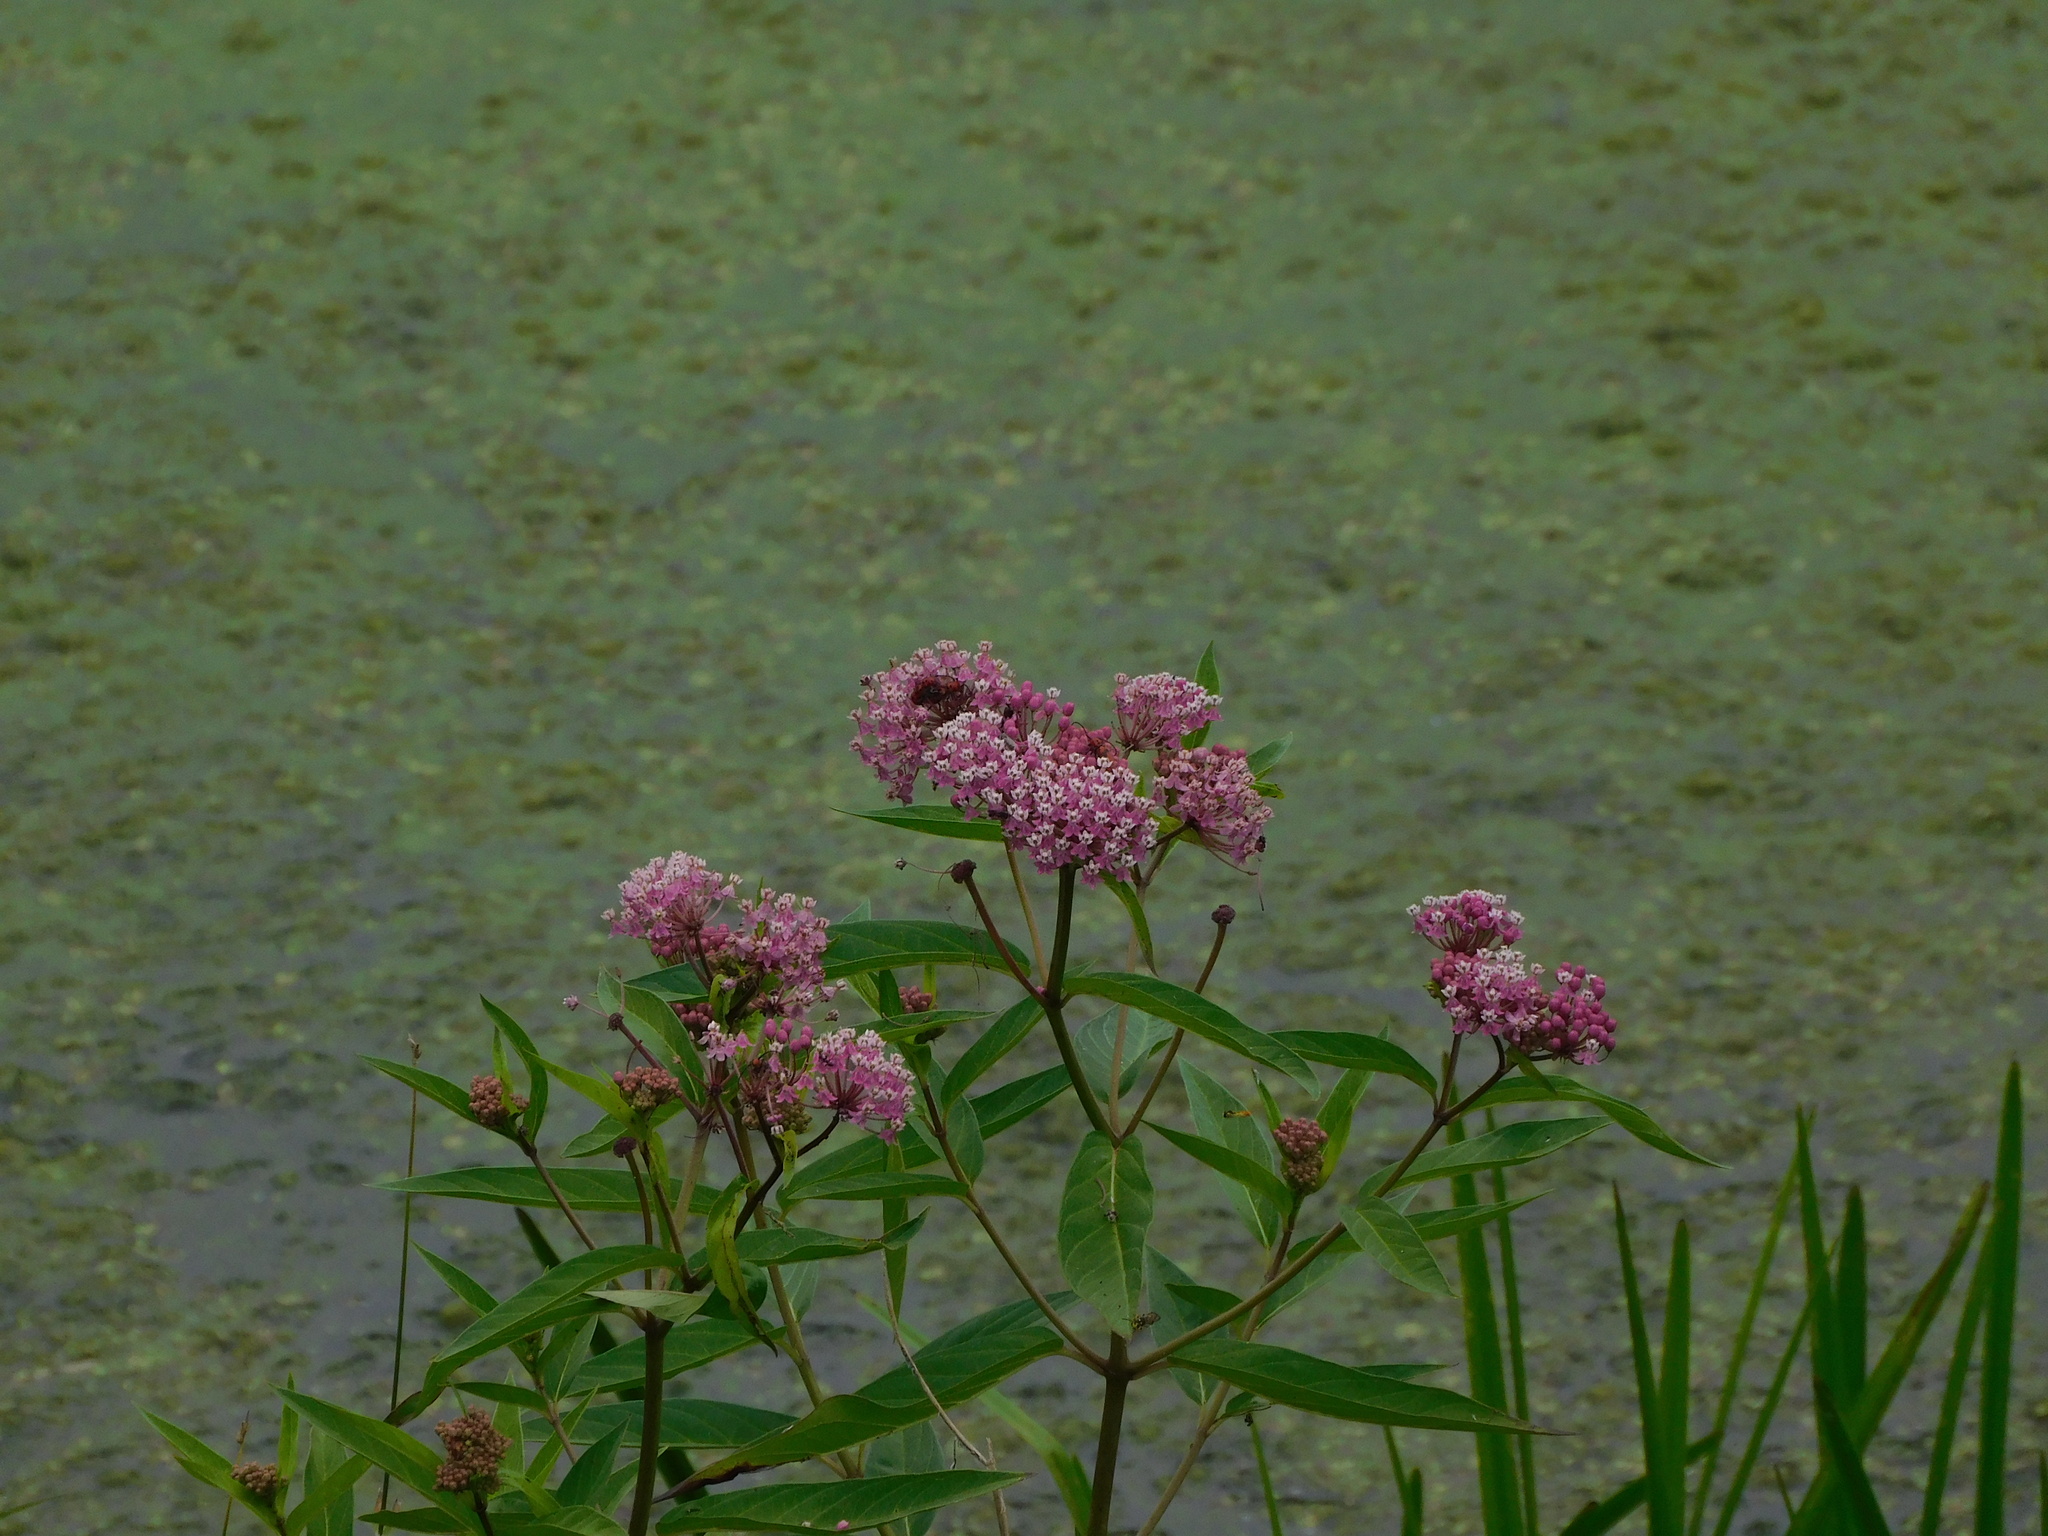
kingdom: Plantae
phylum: Tracheophyta
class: Magnoliopsida
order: Gentianales
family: Apocynaceae
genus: Asclepias
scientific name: Asclepias incarnata
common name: Swamp milkweed
